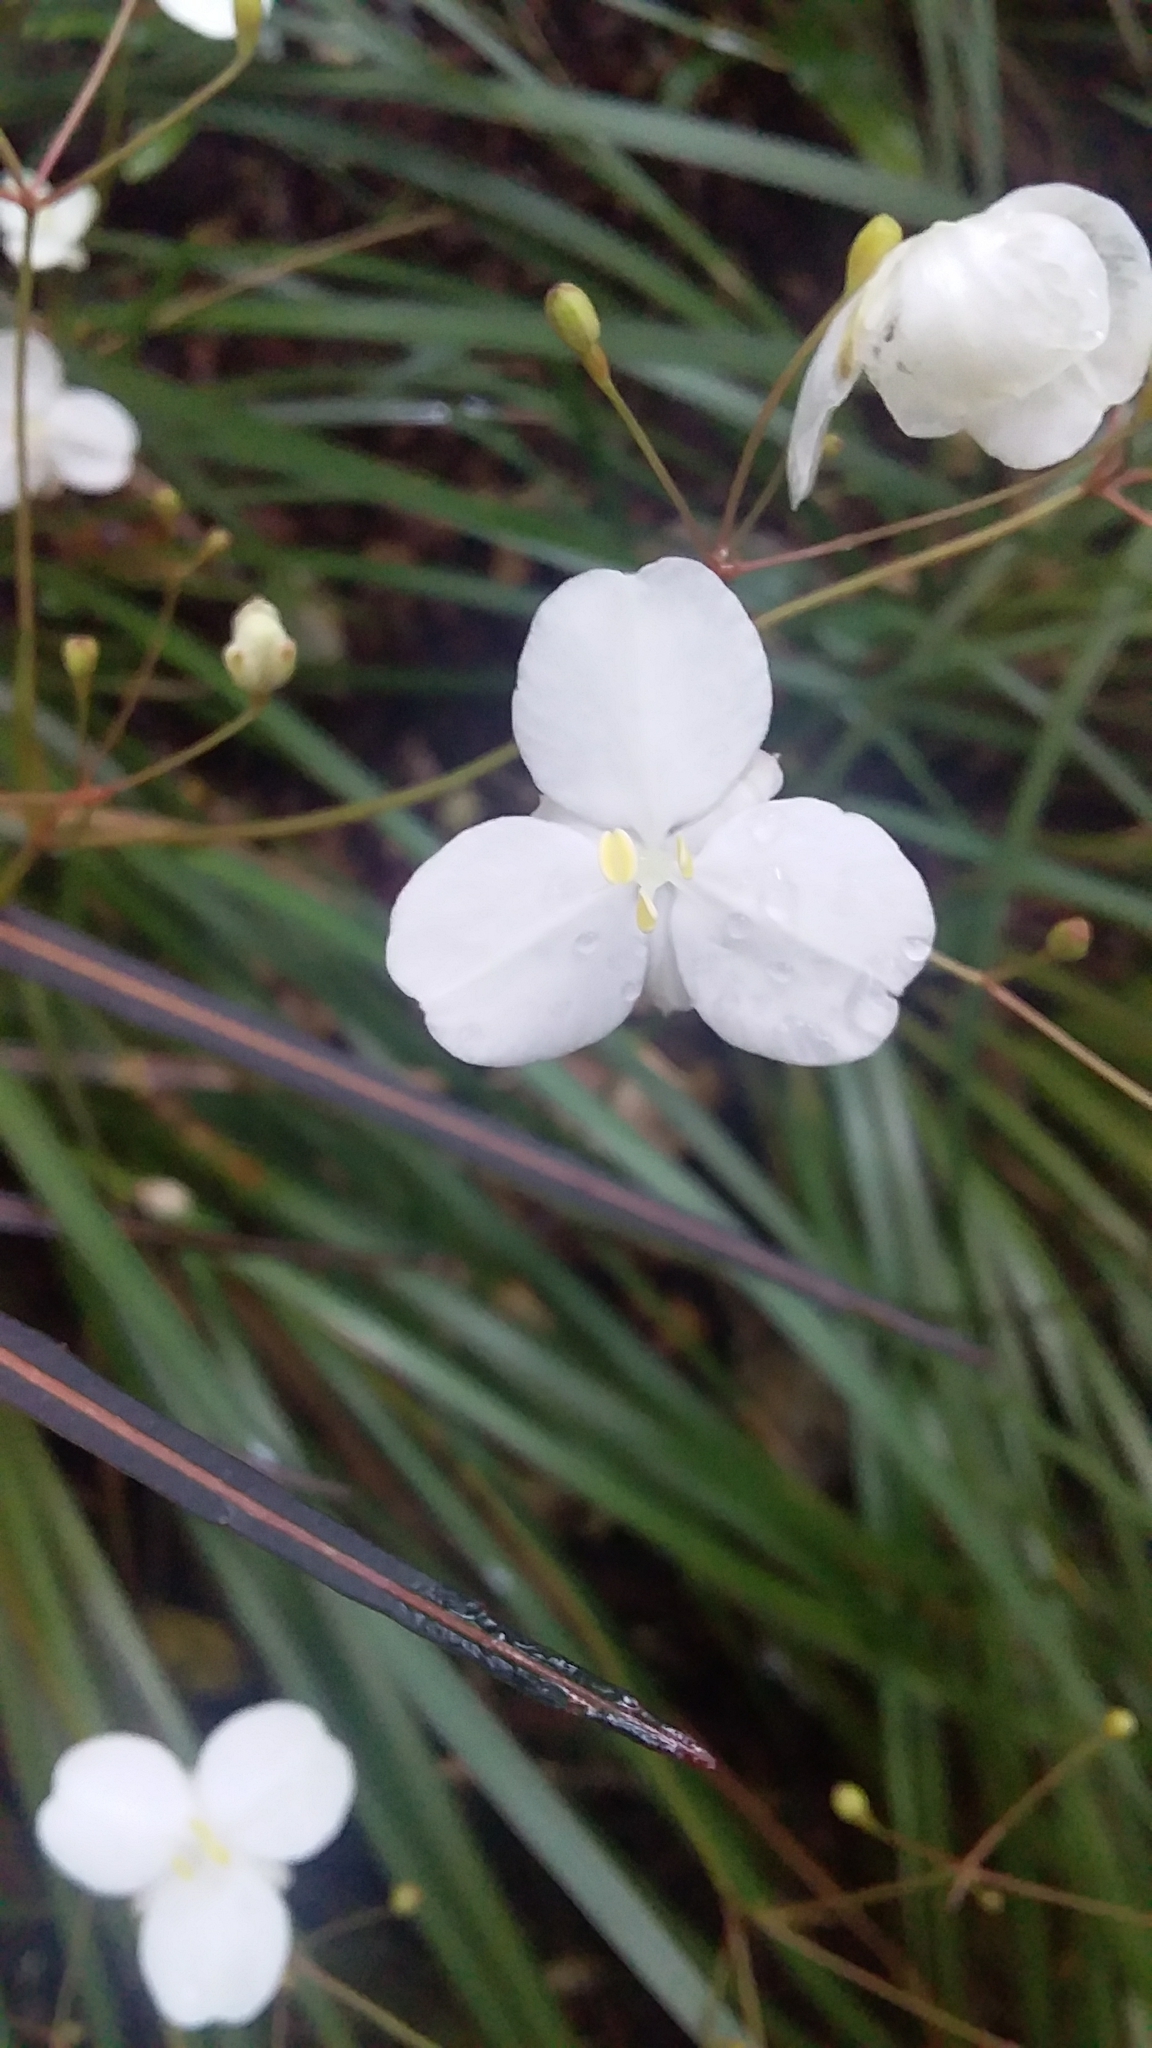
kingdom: Plantae
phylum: Tracheophyta
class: Liliopsida
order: Asparagales
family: Iridaceae
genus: Libertia
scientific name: Libertia ixioides
